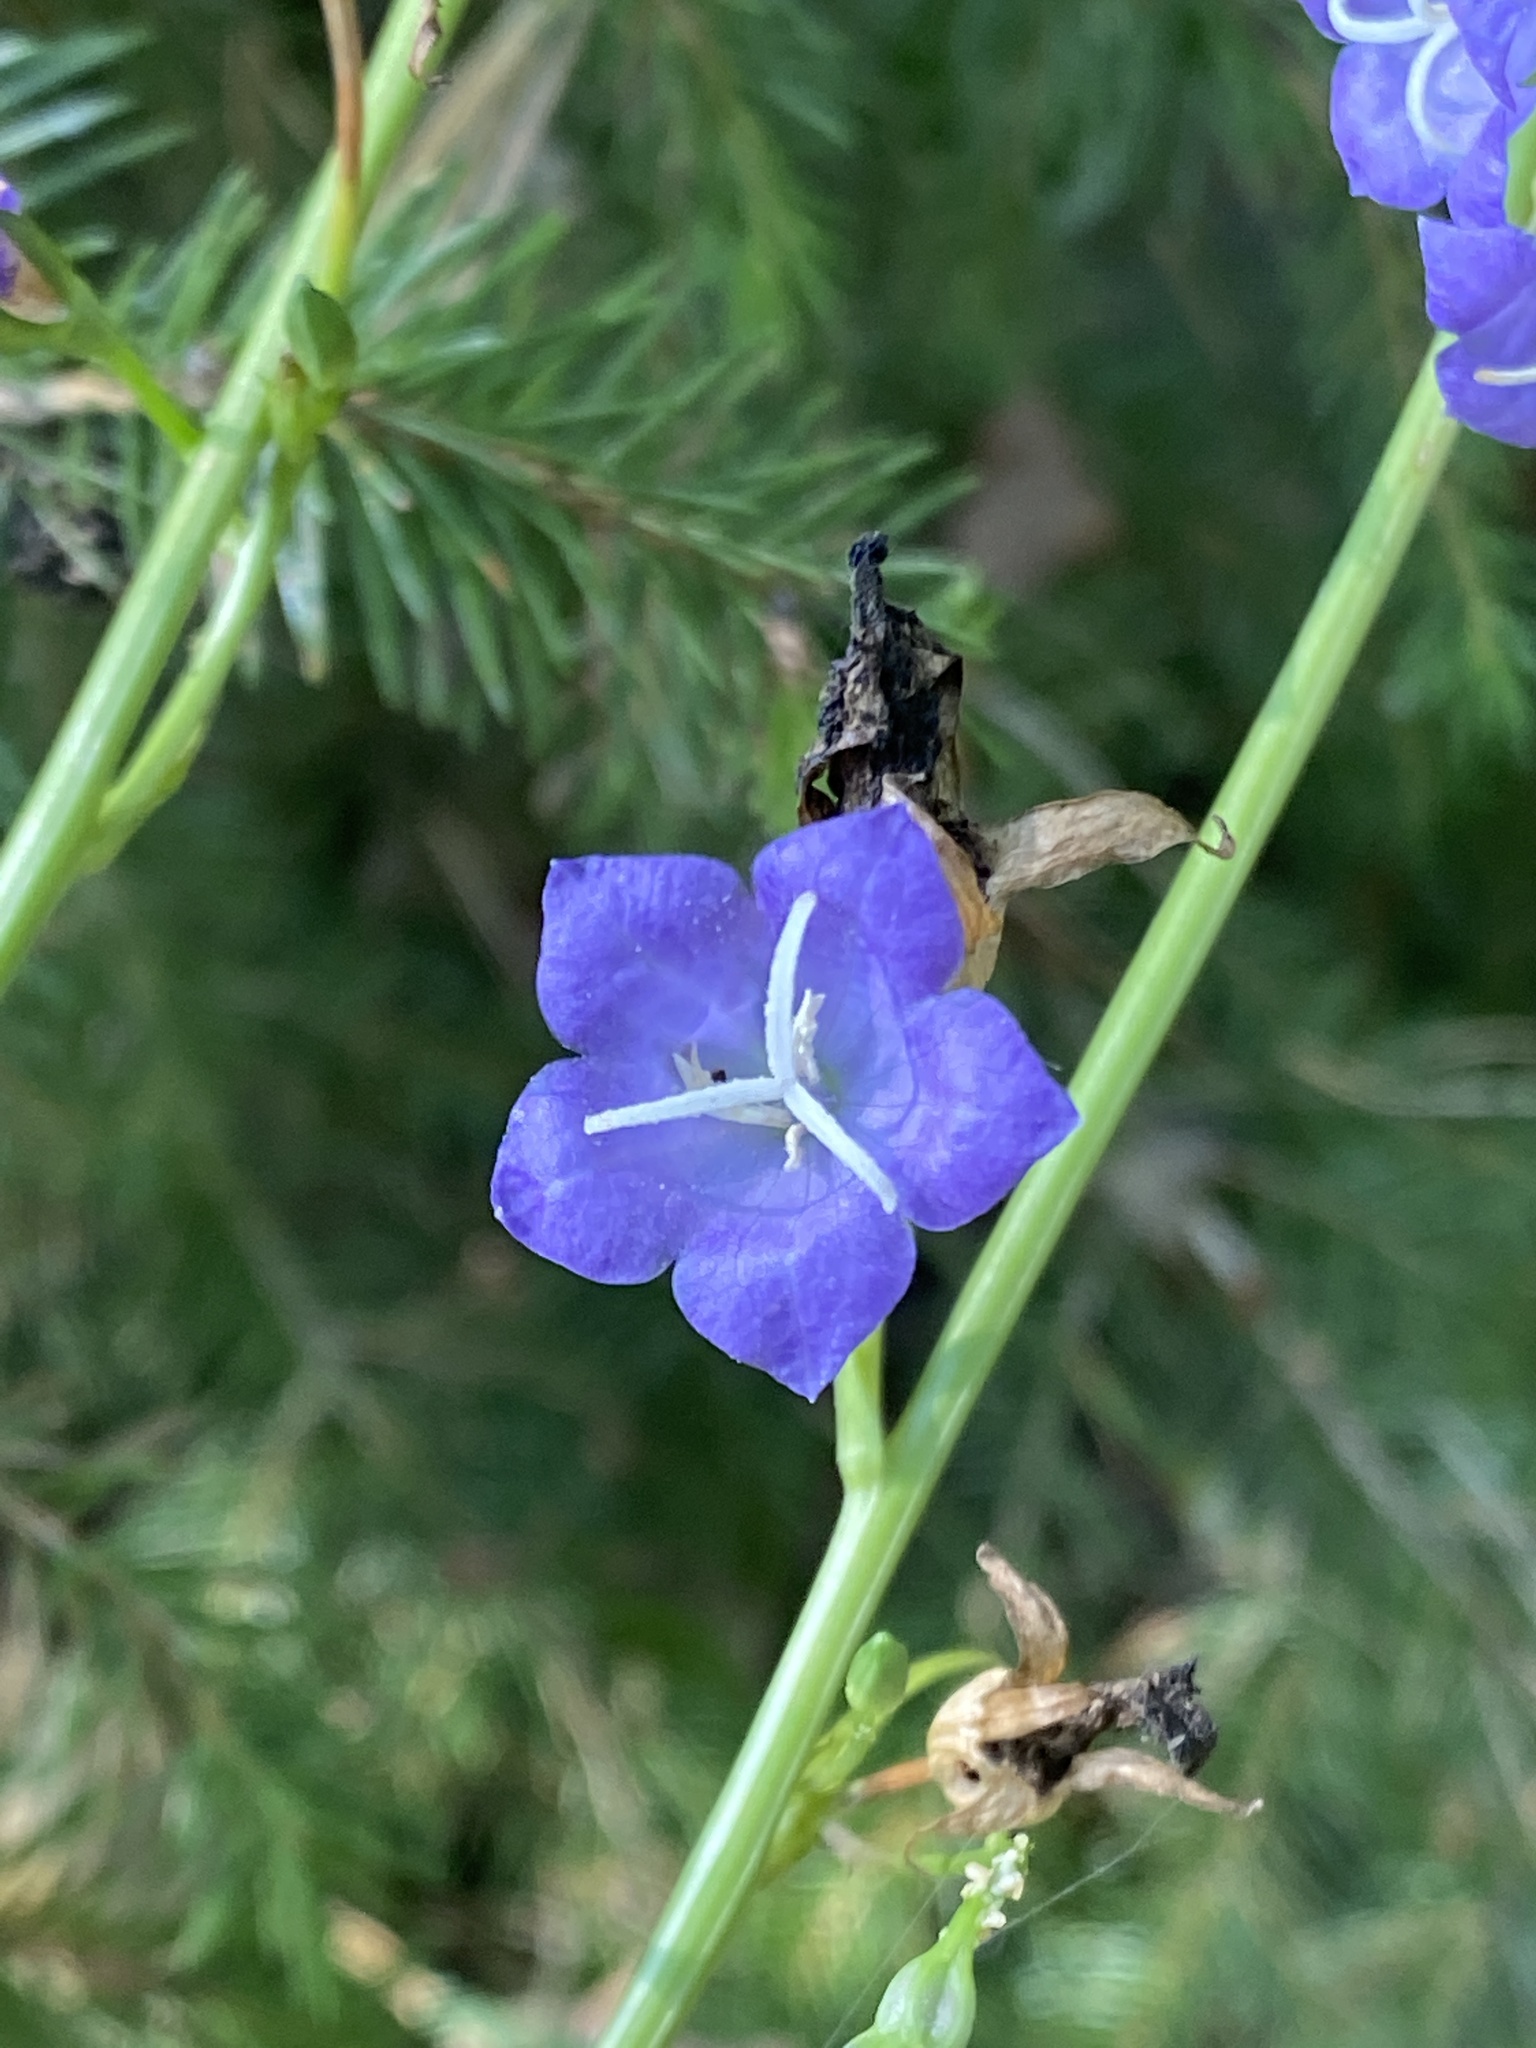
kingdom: Plantae
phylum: Tracheophyta
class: Magnoliopsida
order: Asterales
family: Campanulaceae
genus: Campanula
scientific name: Campanula persicifolia
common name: Peach-leaved bellflower
